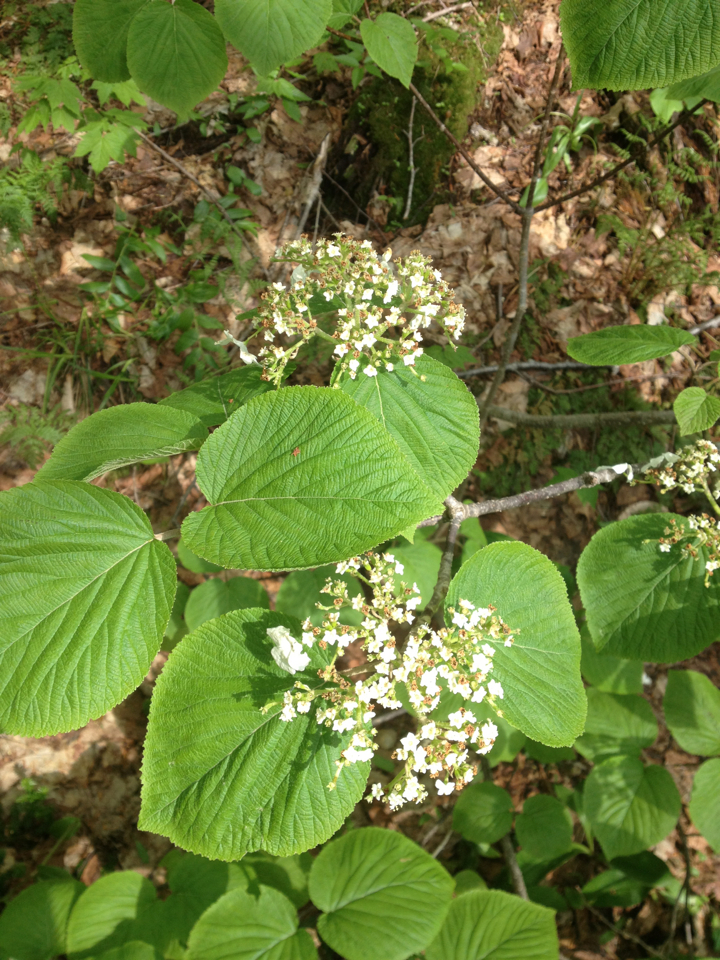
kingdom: Plantae
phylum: Tracheophyta
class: Magnoliopsida
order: Dipsacales
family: Viburnaceae
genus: Viburnum
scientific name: Viburnum lantanoides
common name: Hobblebush
